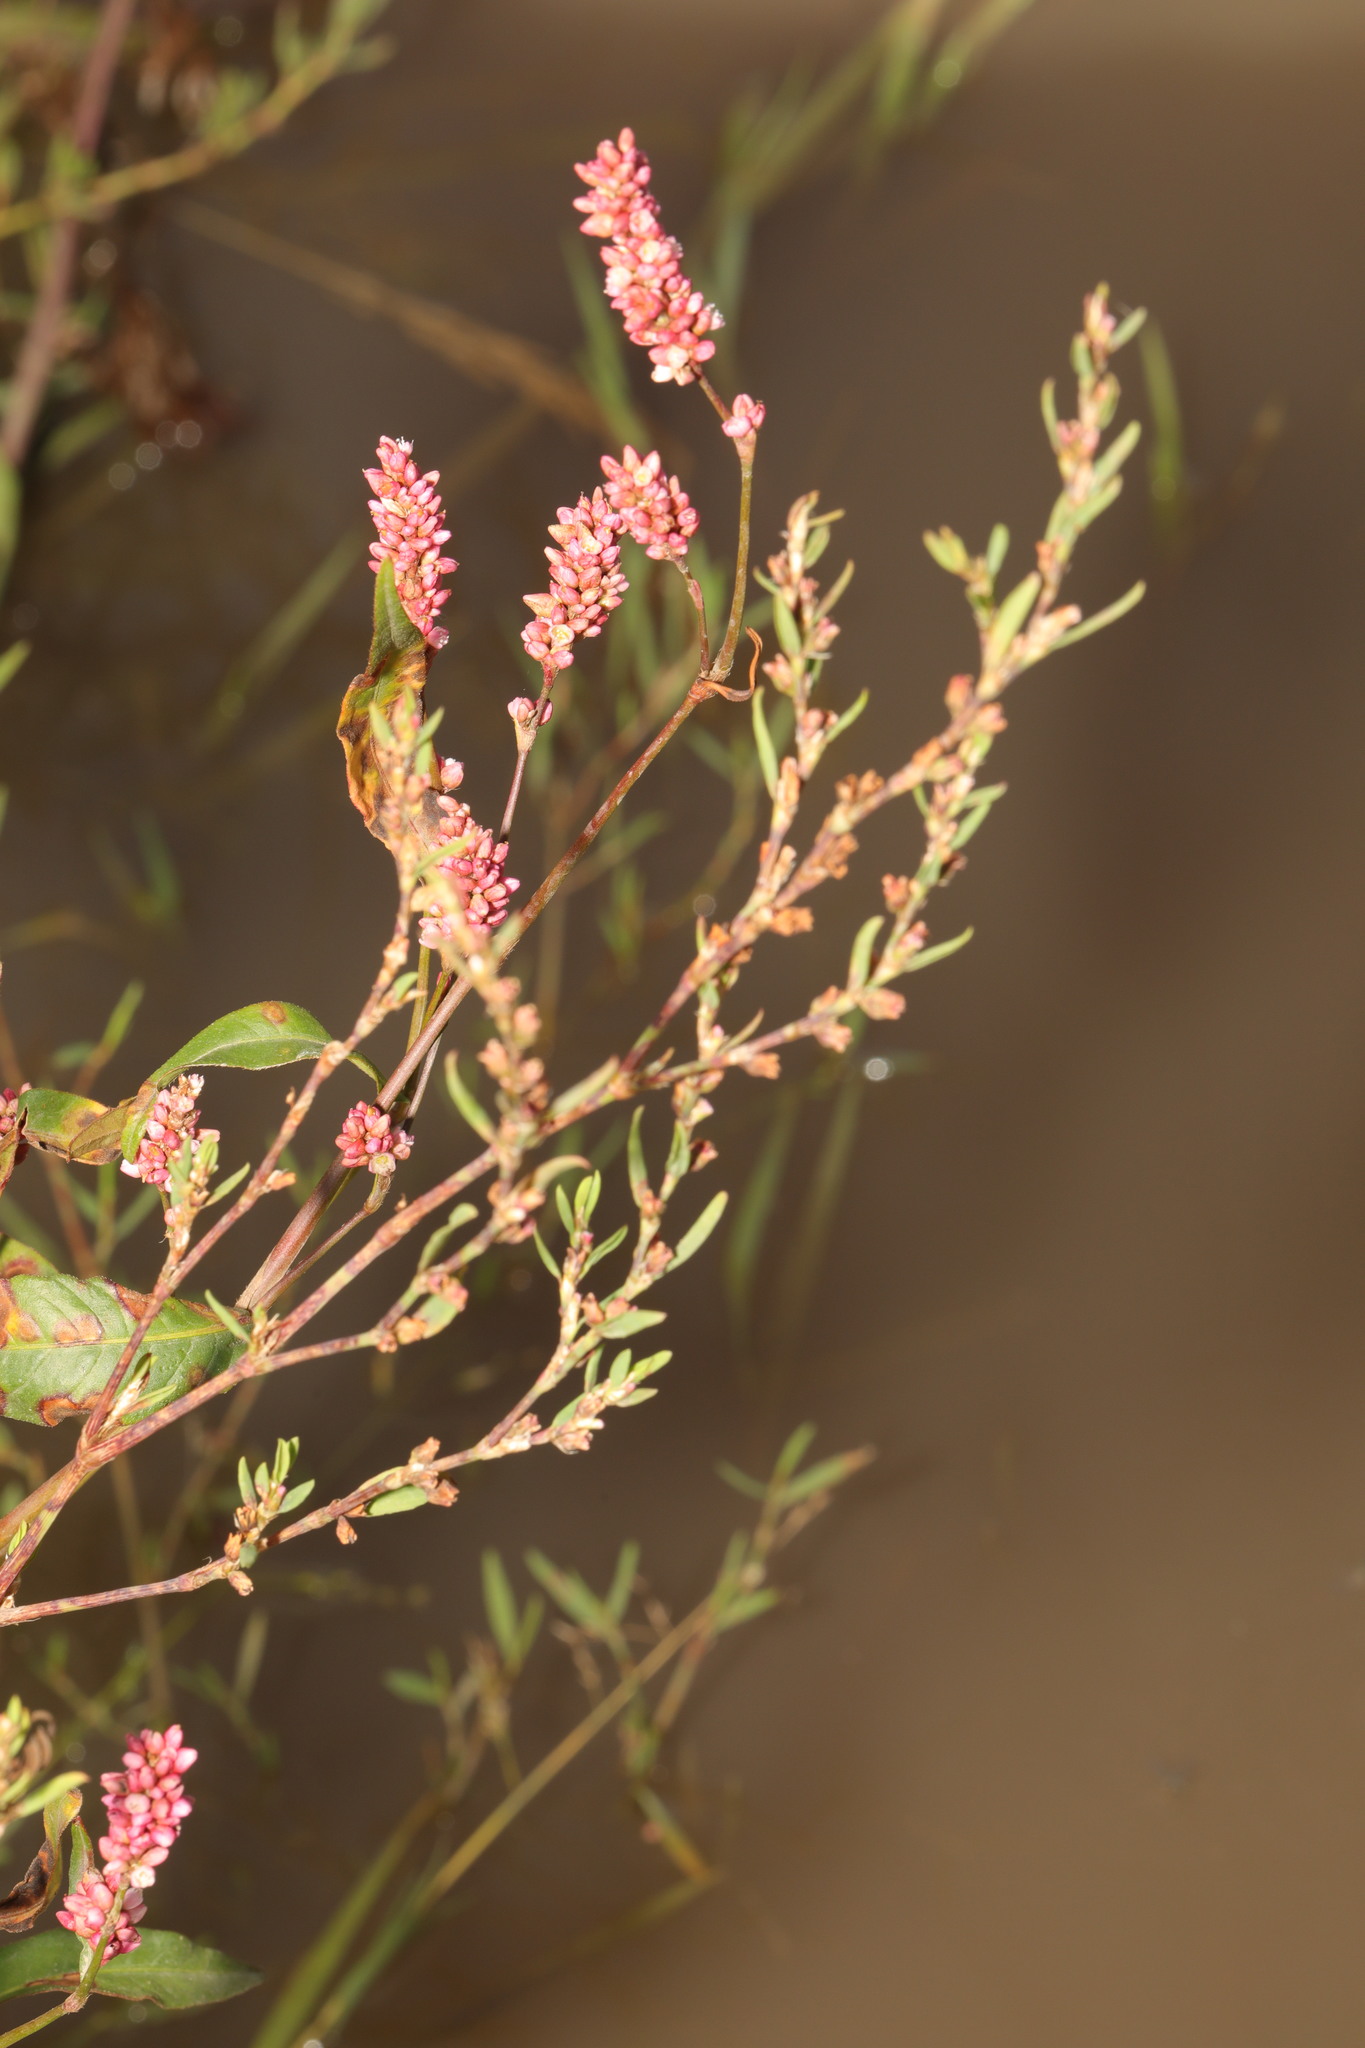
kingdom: Plantae
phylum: Tracheophyta
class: Magnoliopsida
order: Caryophyllales
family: Polygonaceae
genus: Persicaria
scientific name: Persicaria maculosa
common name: Redshank
